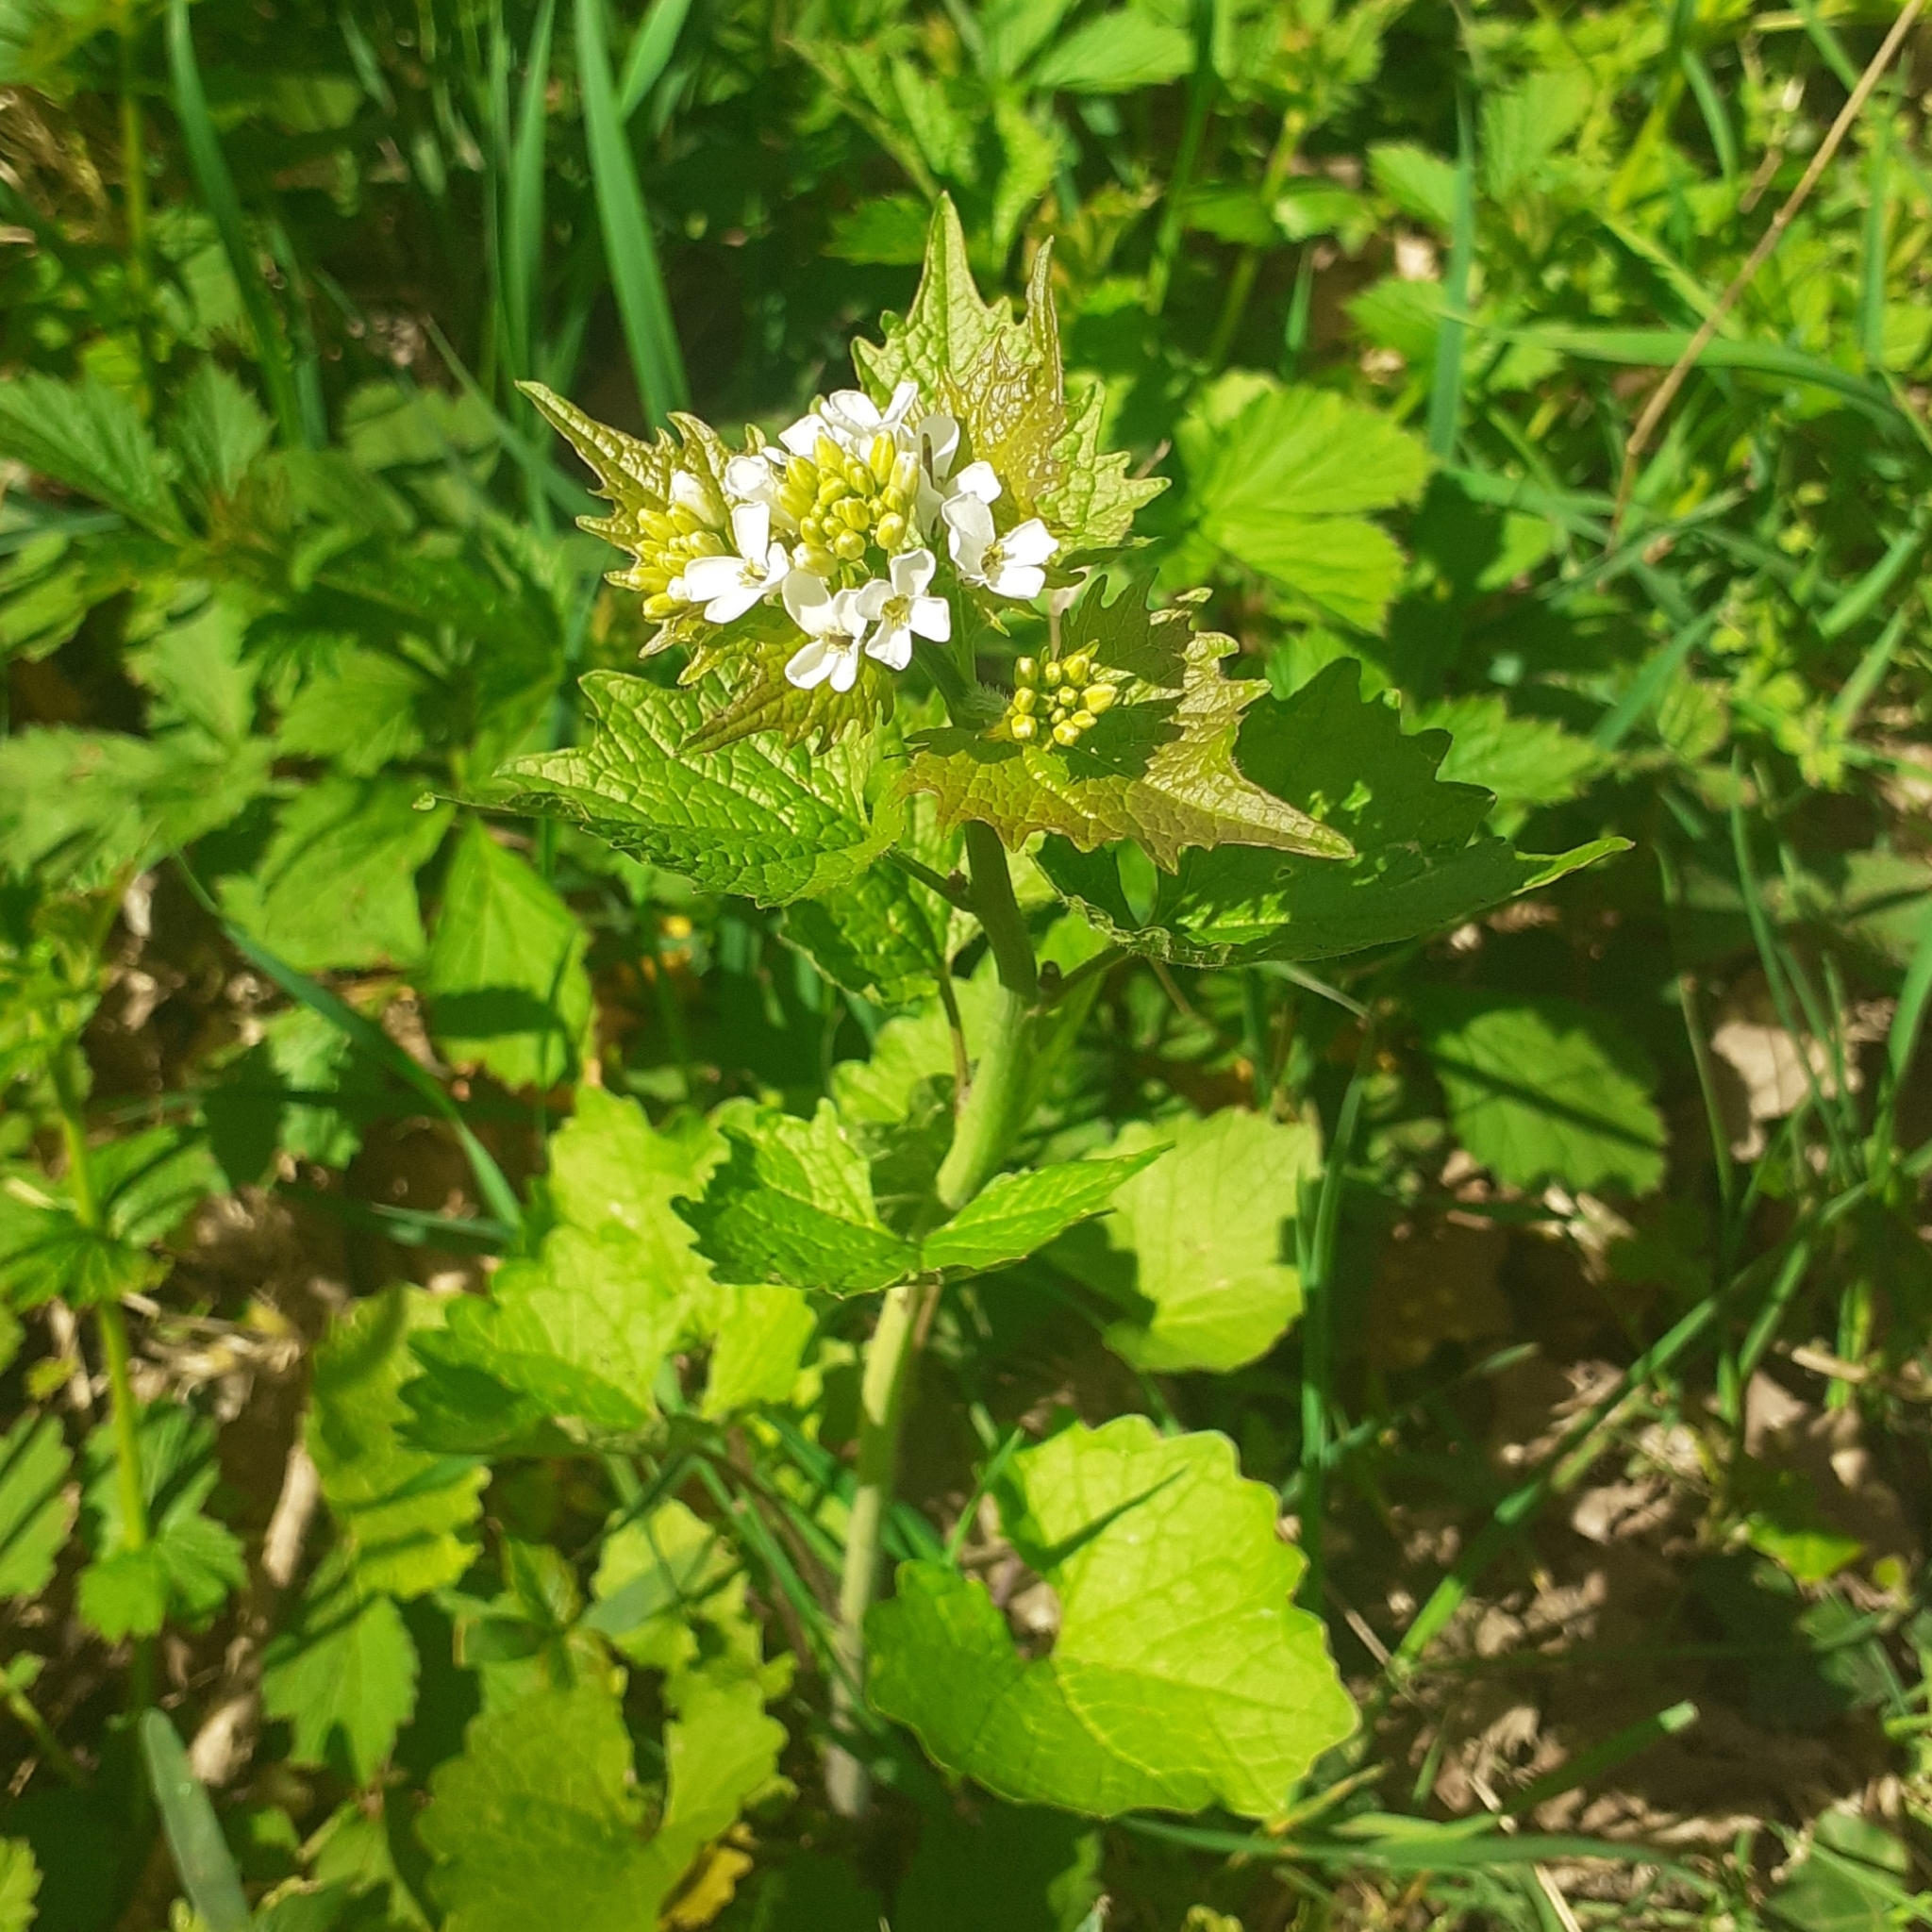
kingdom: Plantae
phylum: Tracheophyta
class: Magnoliopsida
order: Brassicales
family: Brassicaceae
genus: Alliaria
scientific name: Alliaria petiolata
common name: Garlic mustard
